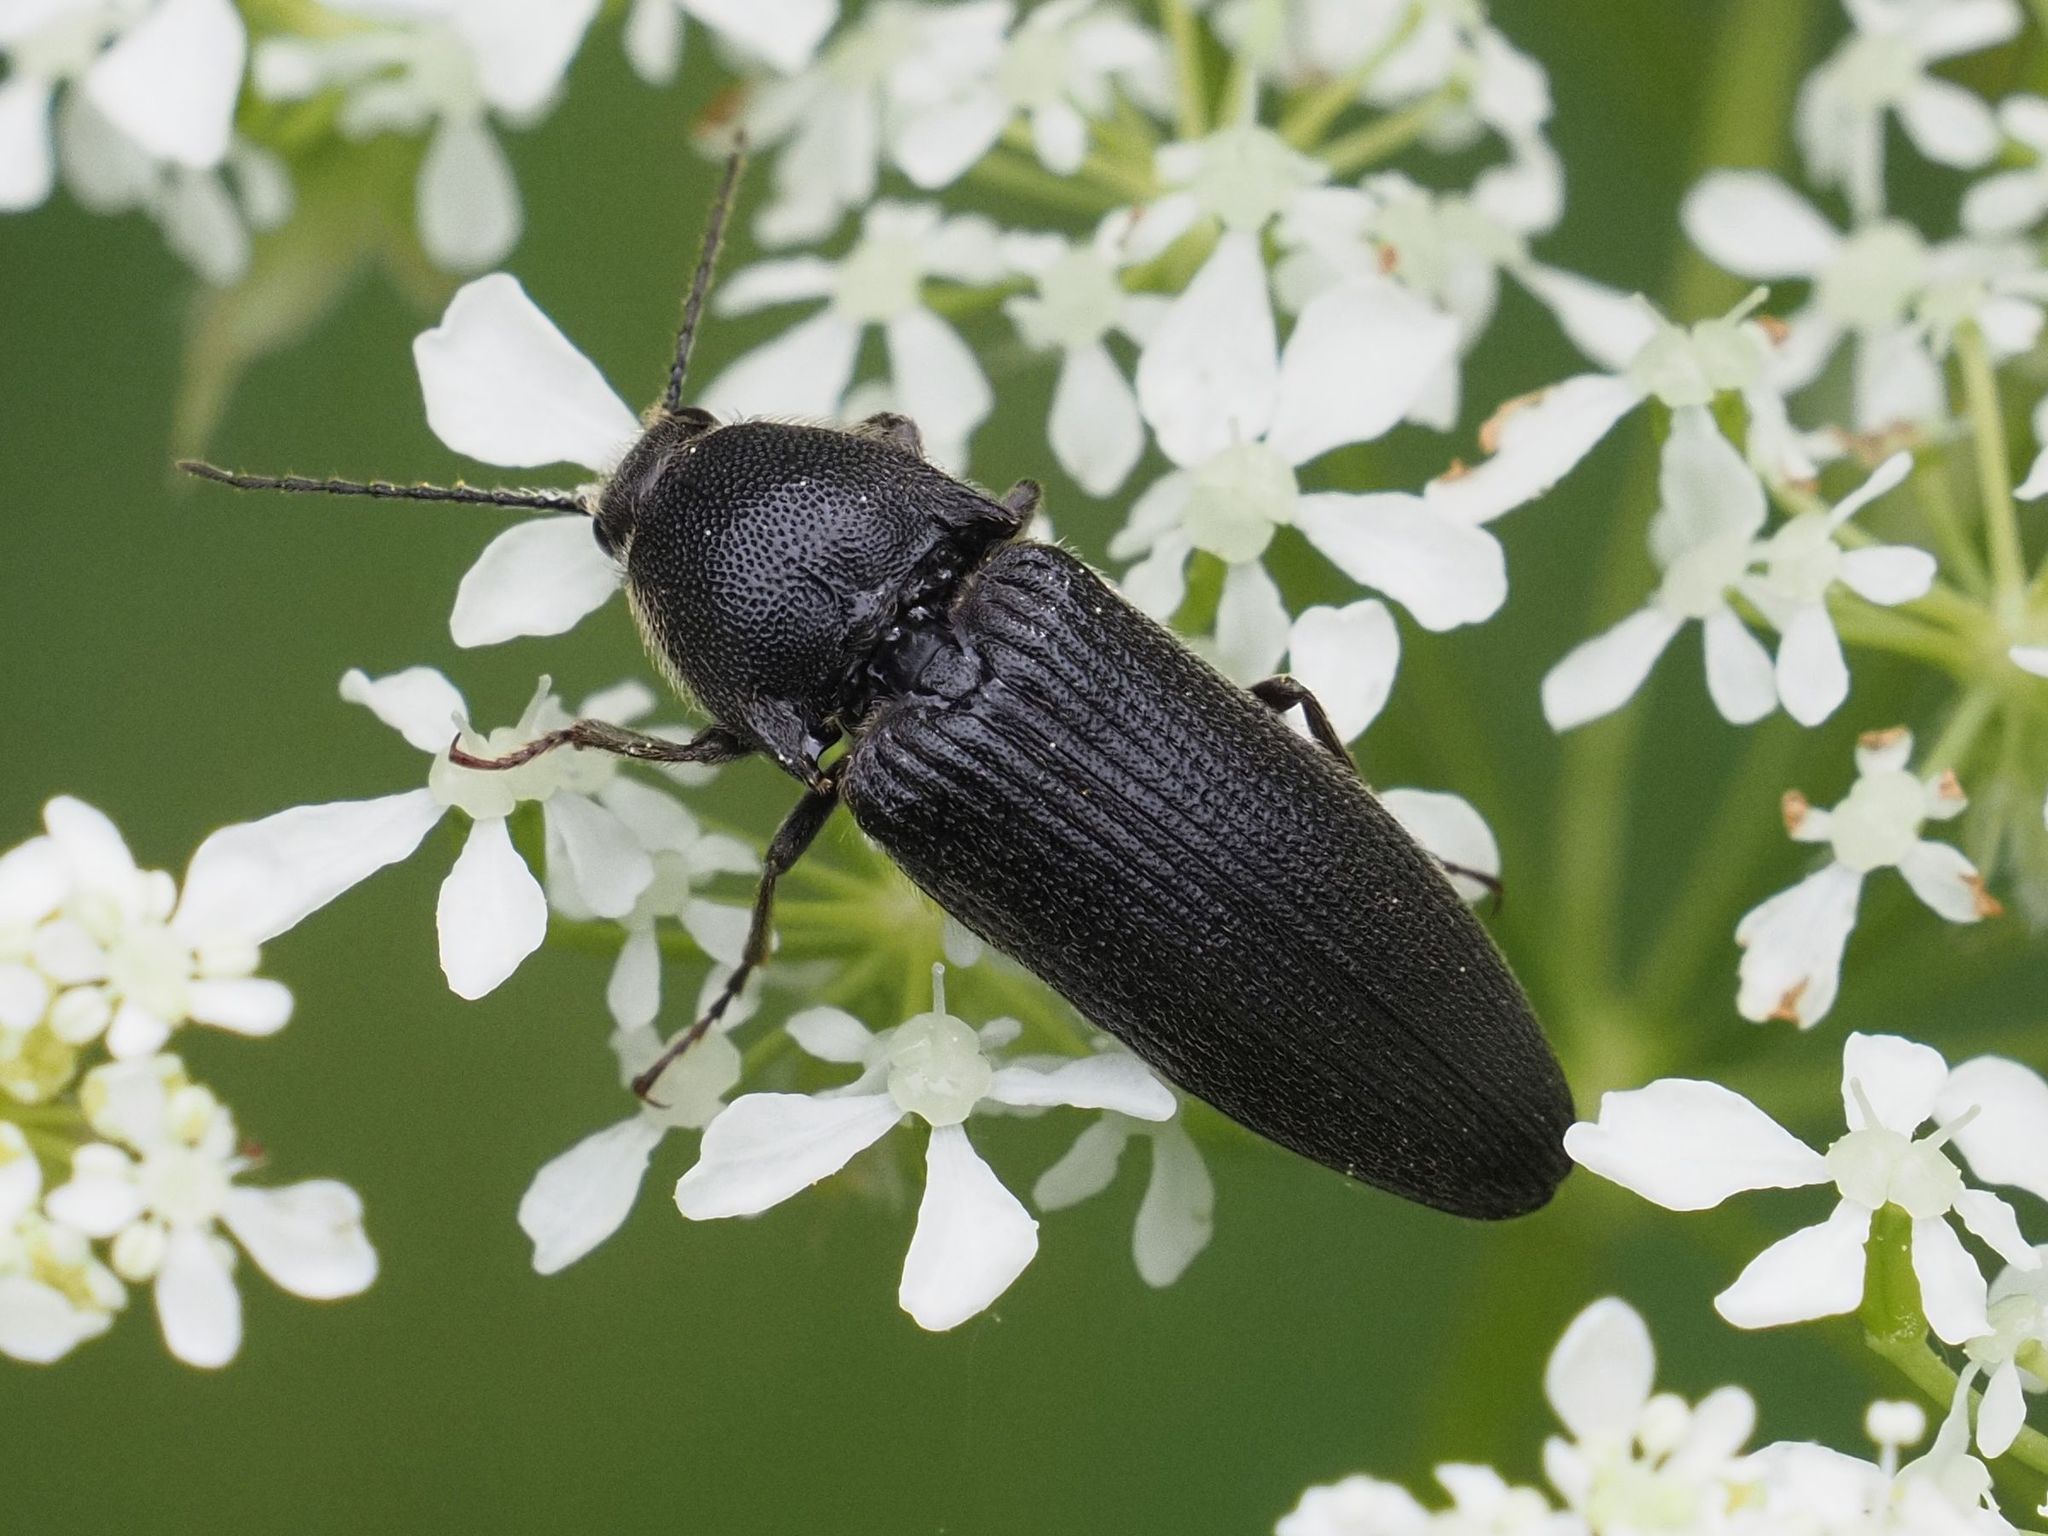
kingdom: Animalia
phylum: Arthropoda
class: Insecta
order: Coleoptera
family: Elateridae
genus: Melanotus
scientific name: Melanotus punctolineatus
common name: Sandwich click beetle
